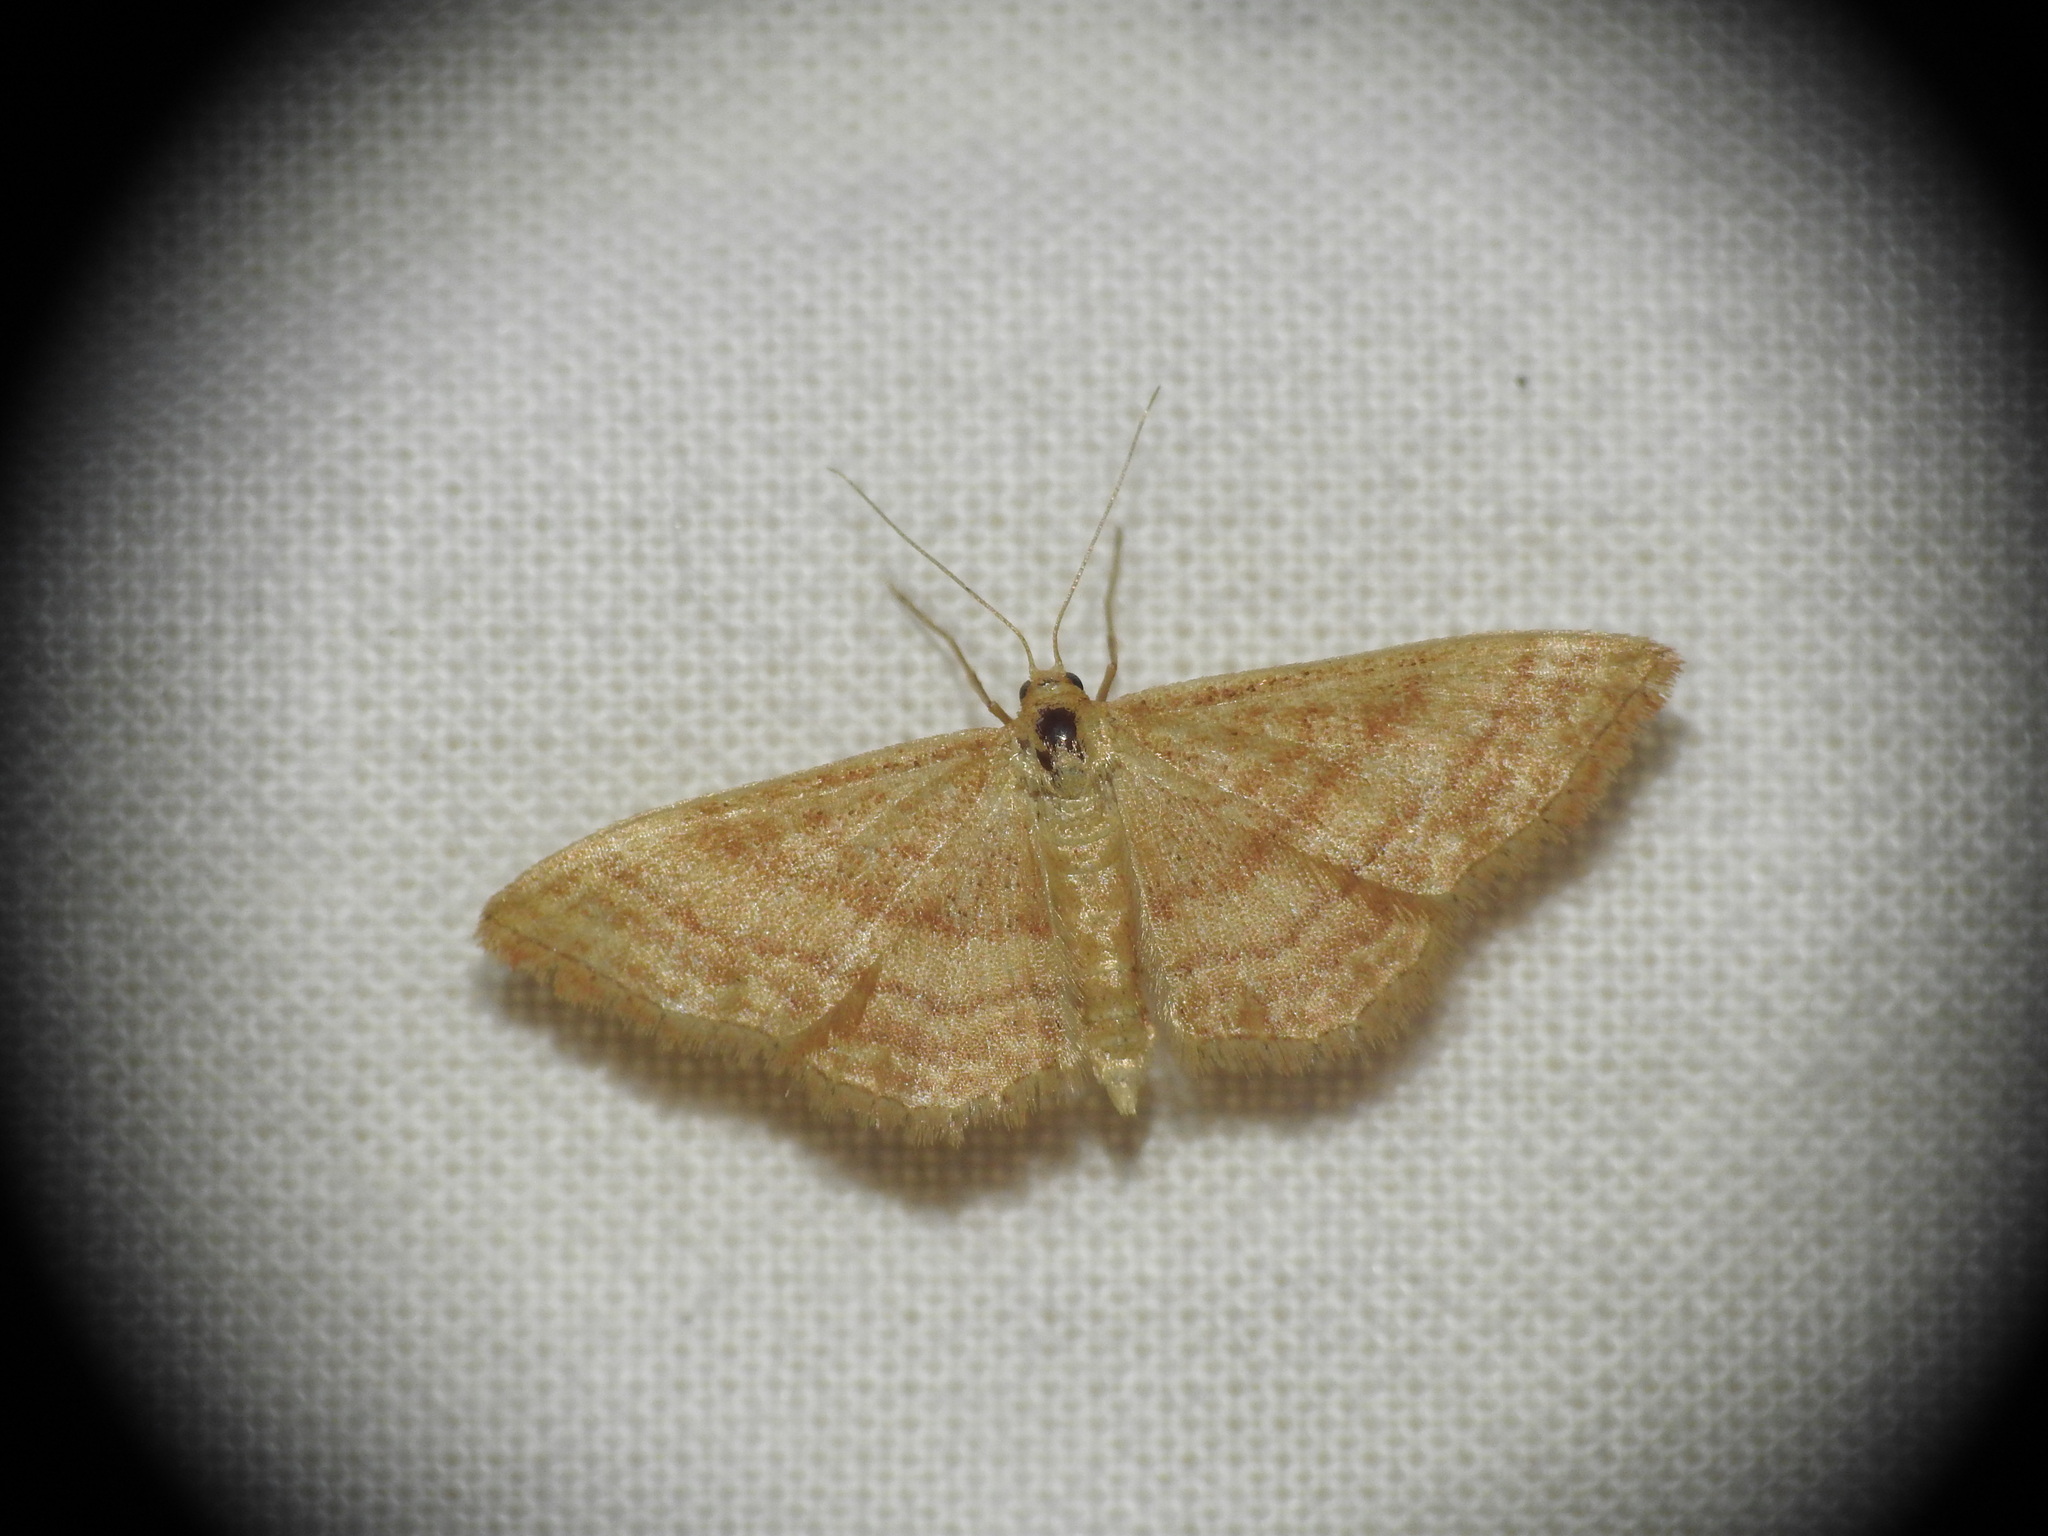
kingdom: Animalia
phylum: Arthropoda
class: Insecta
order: Lepidoptera
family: Geometridae
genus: Idaea
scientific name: Idaea ochrata
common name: Bright wave
